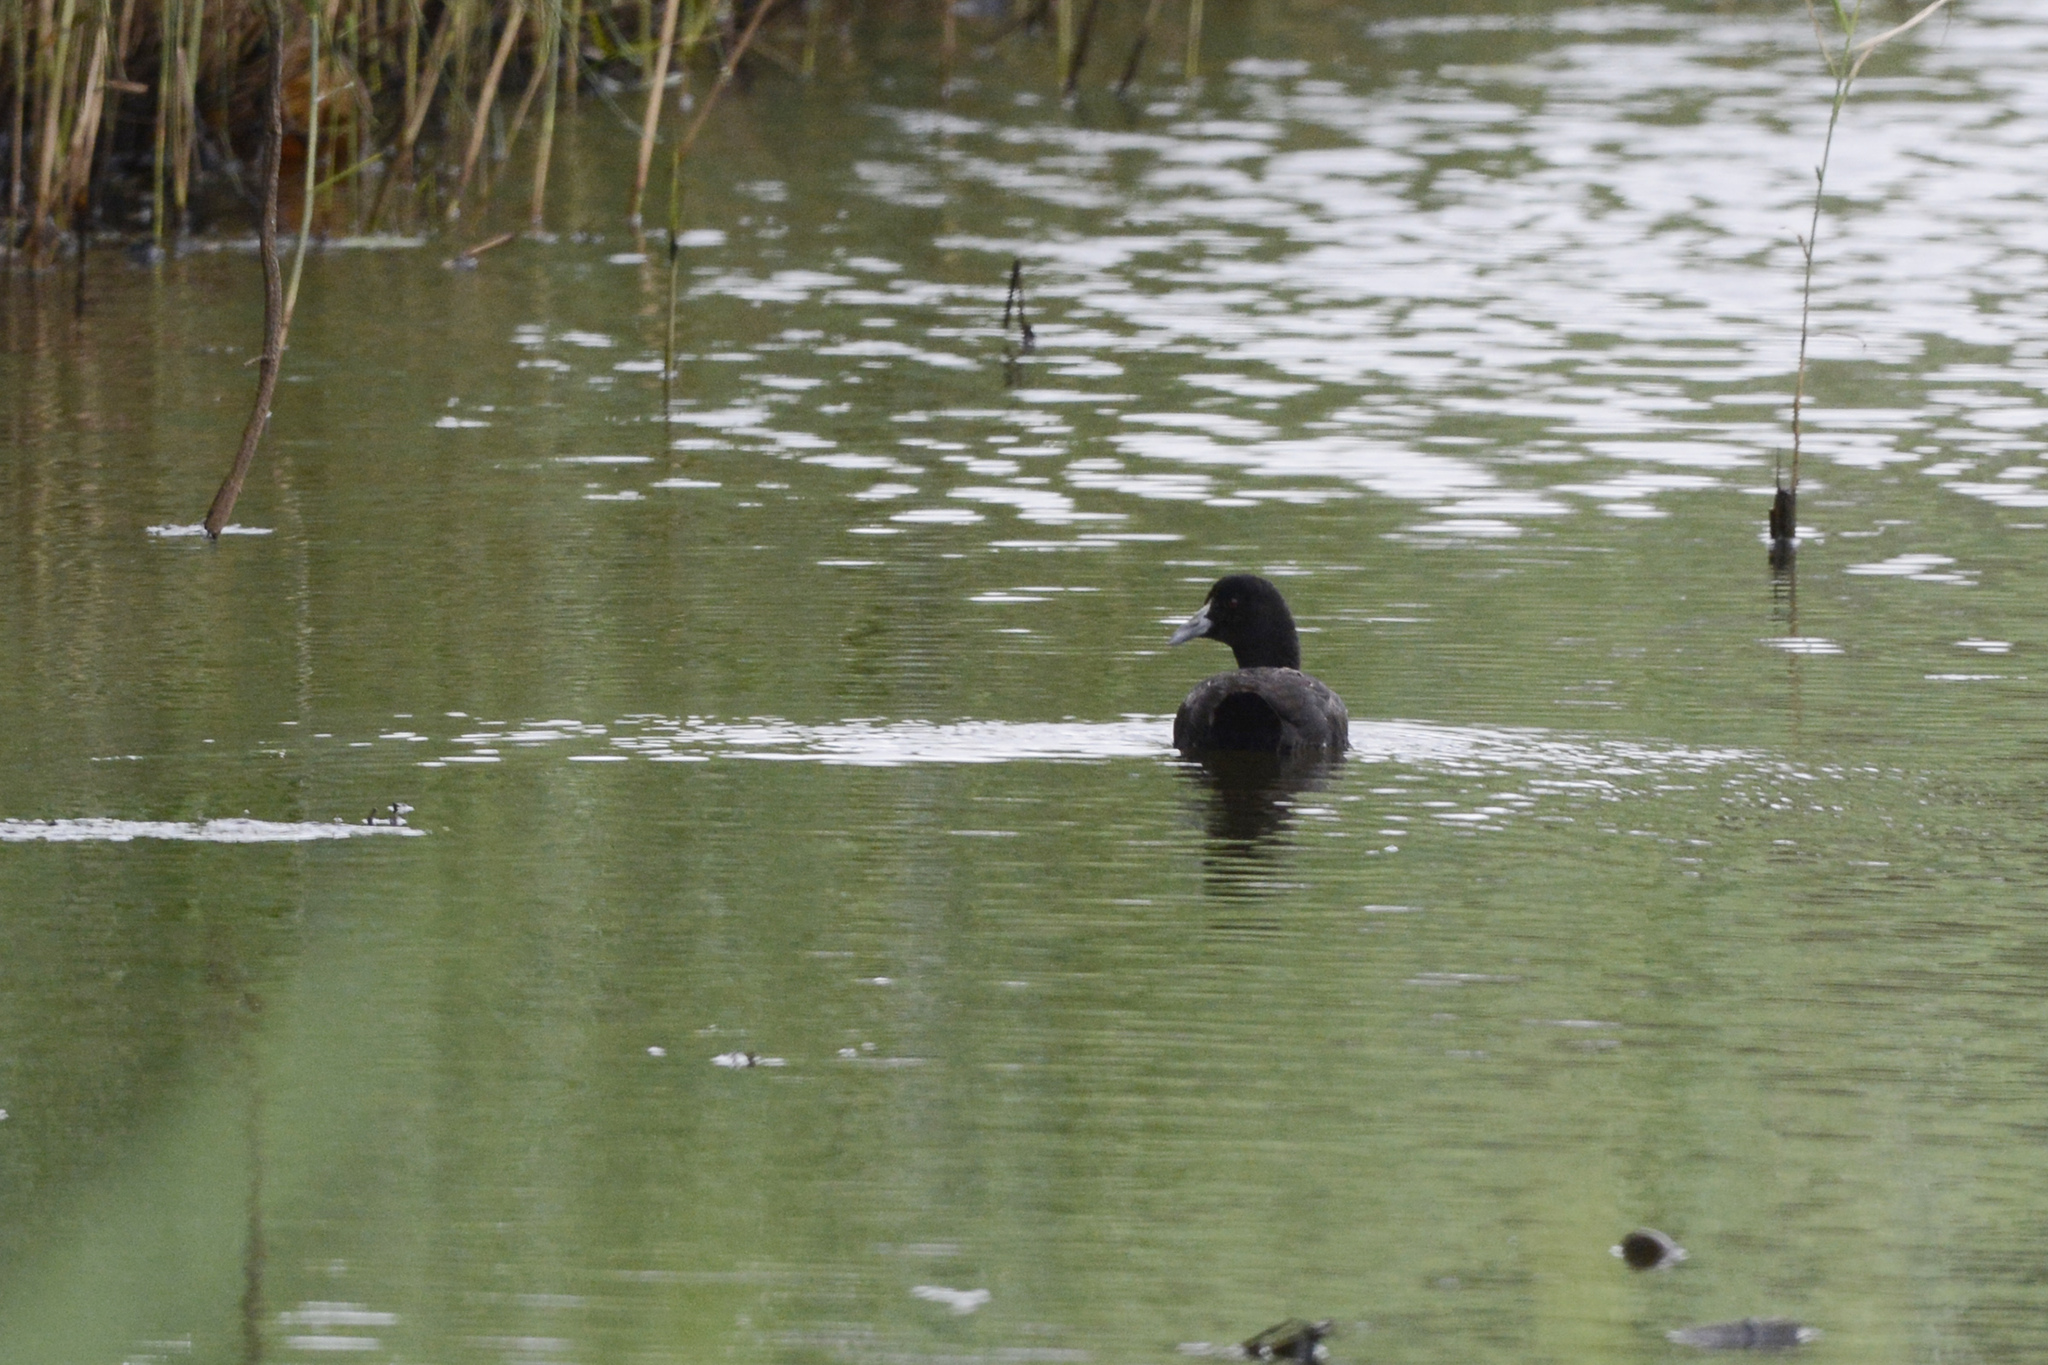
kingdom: Animalia
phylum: Chordata
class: Aves
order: Gruiformes
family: Rallidae
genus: Fulica
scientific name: Fulica atra
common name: Eurasian coot
